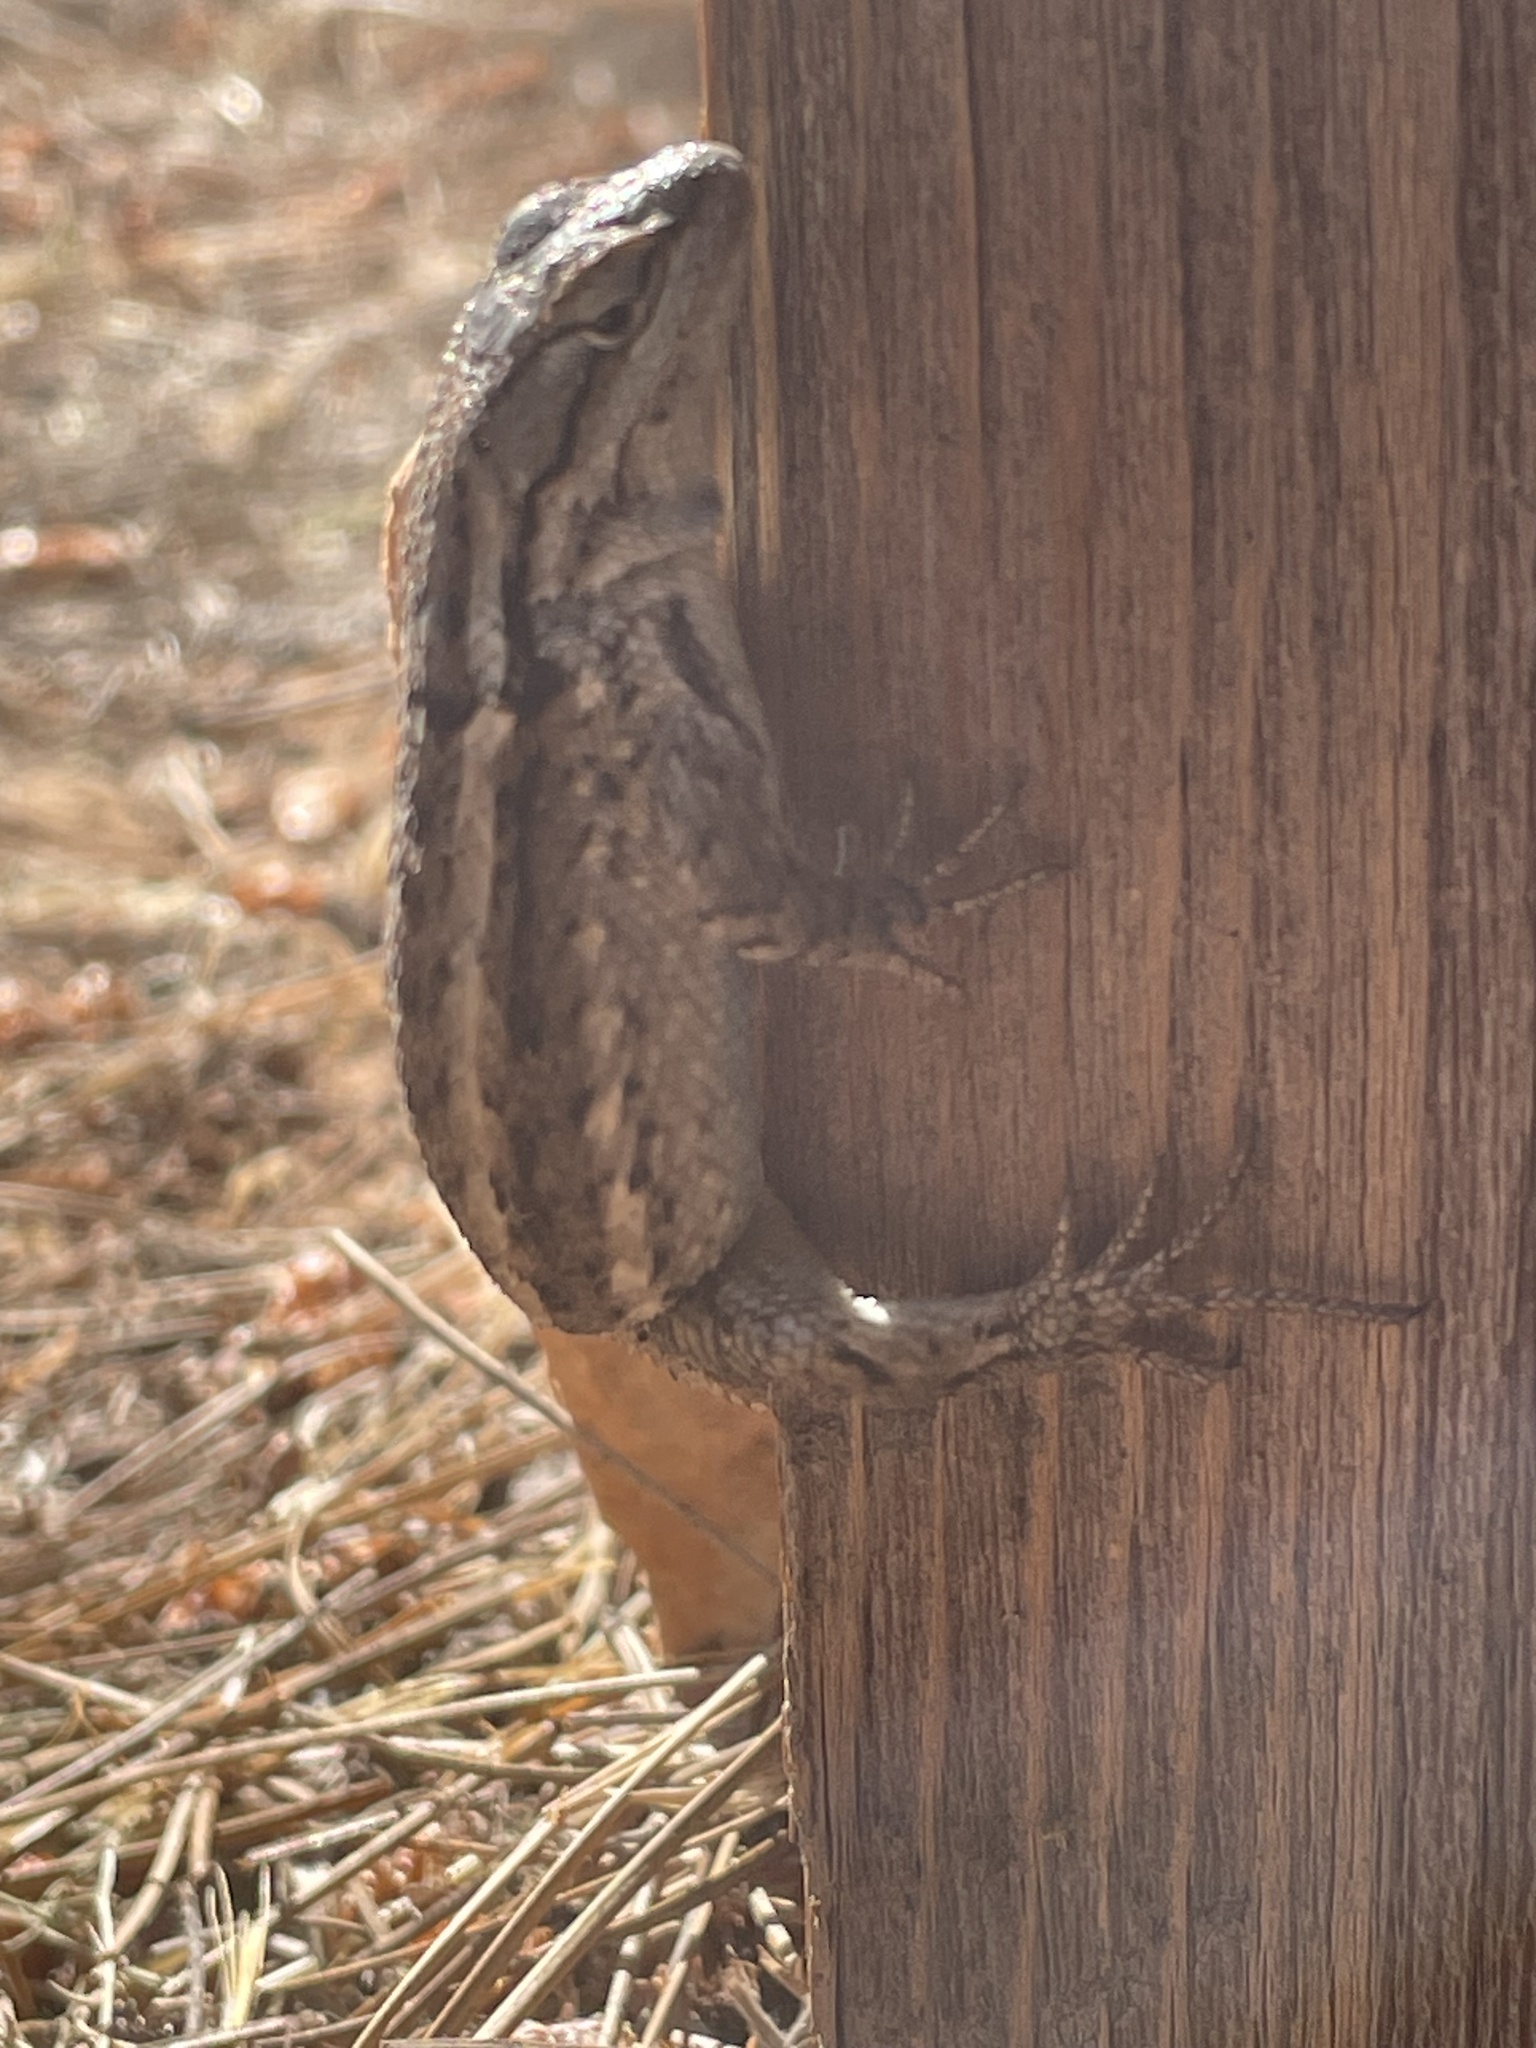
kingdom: Animalia
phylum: Chordata
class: Squamata
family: Phrynosomatidae
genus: Sceloporus
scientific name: Sceloporus tristichus
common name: Plateau fence lizard
